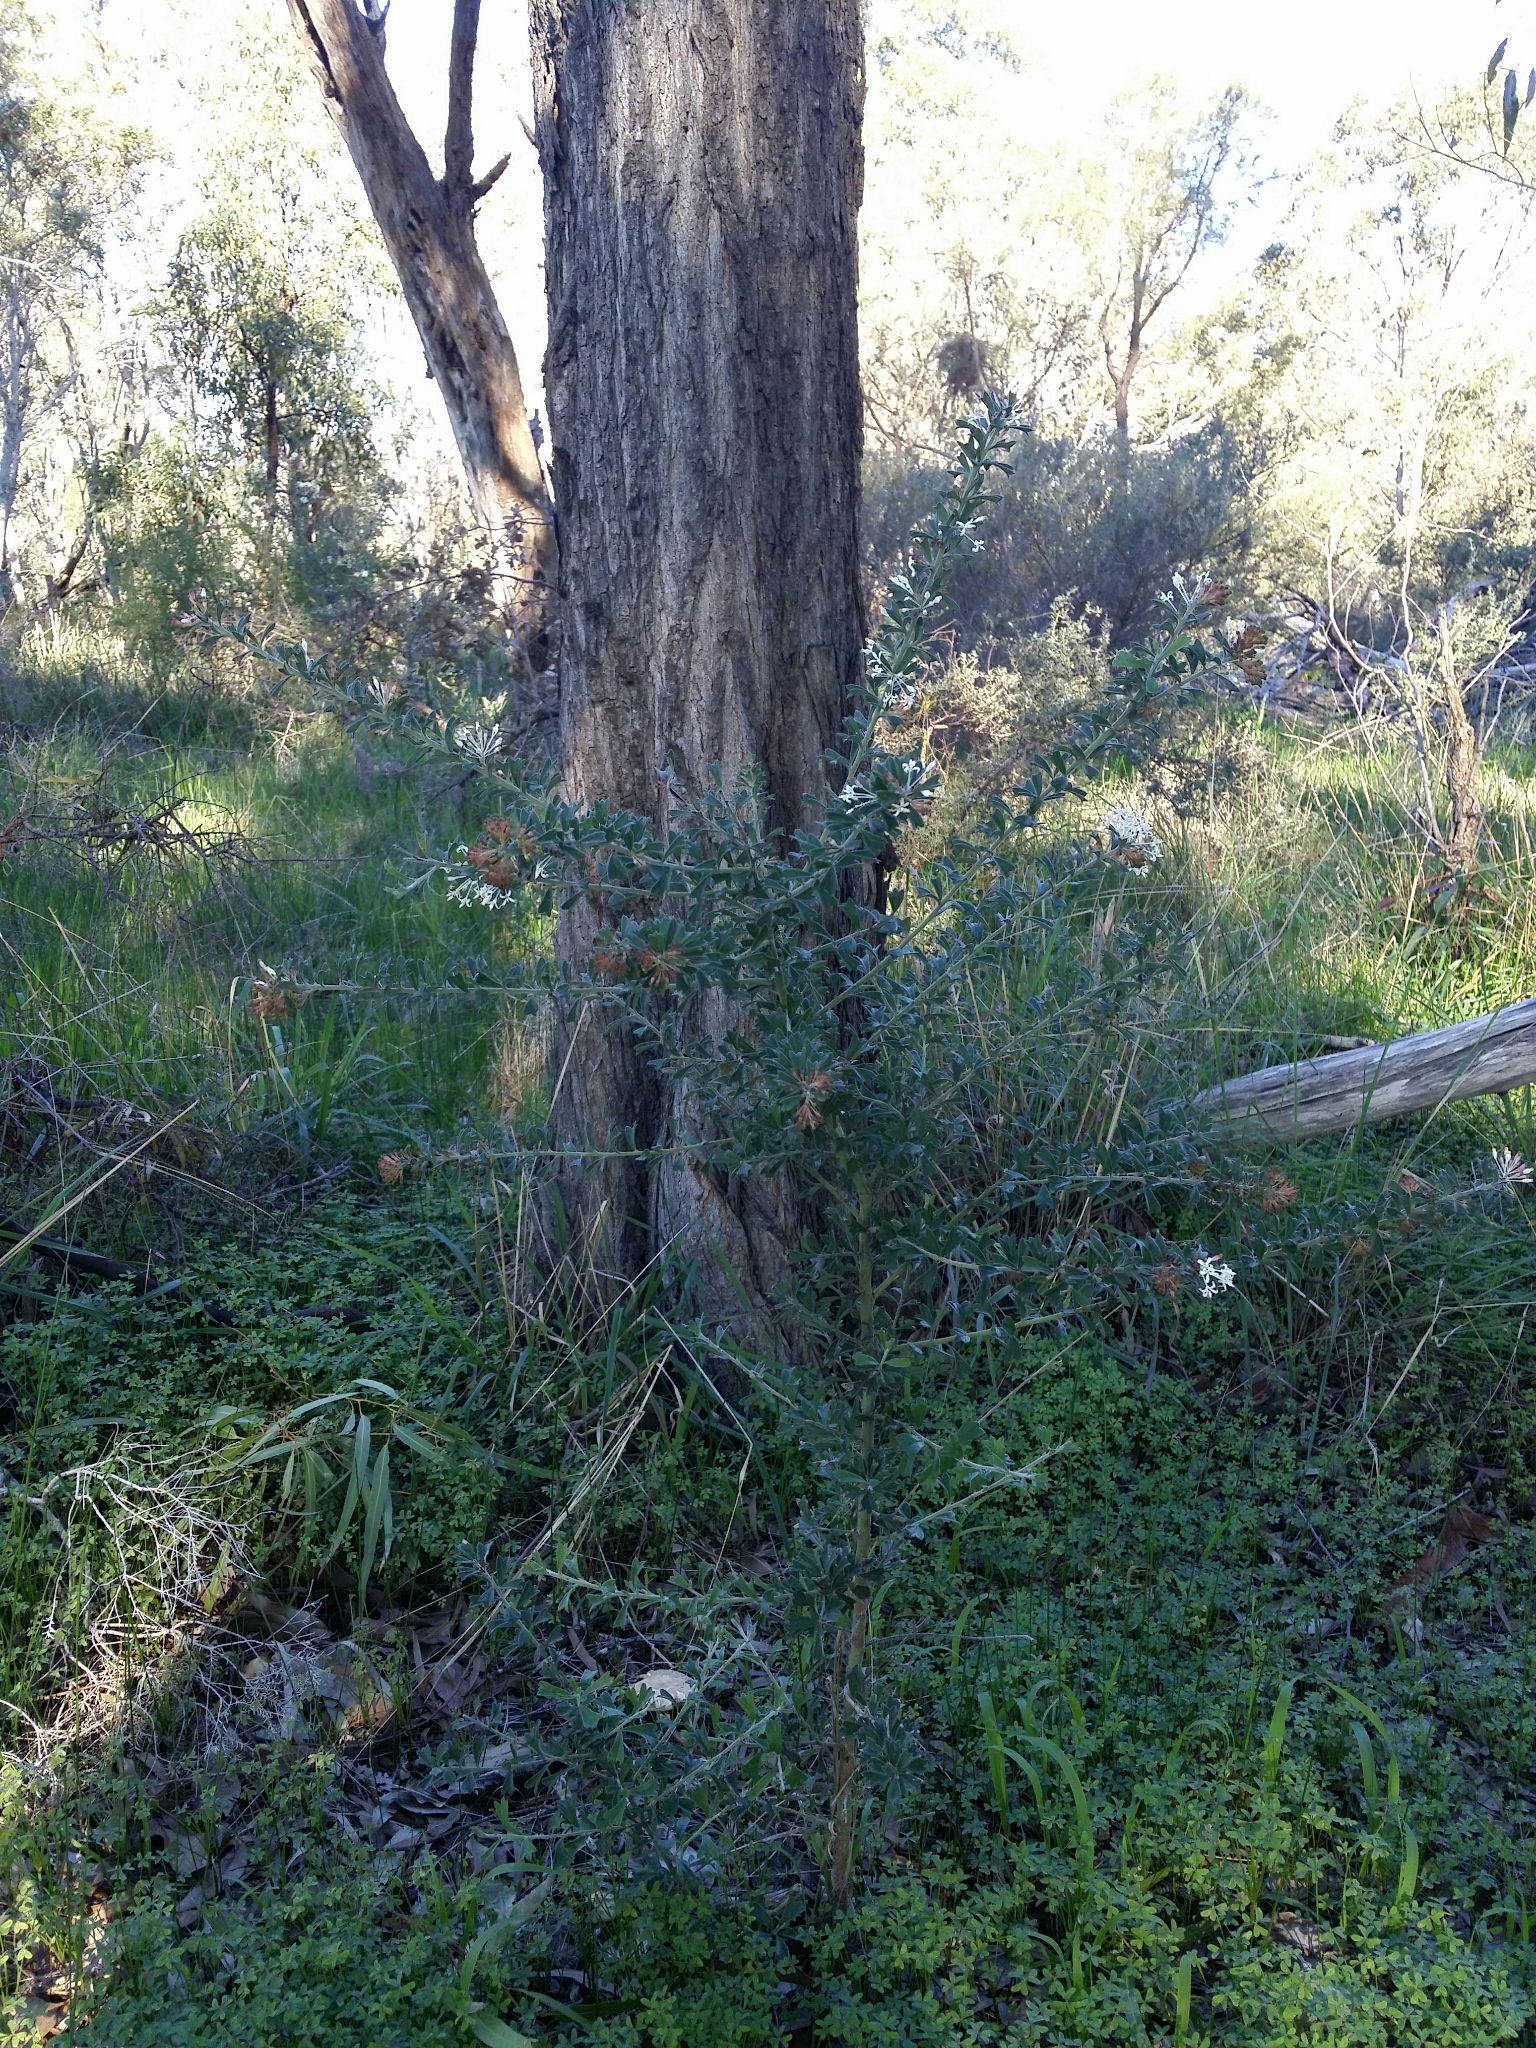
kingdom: Plantae
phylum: Tracheophyta
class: Magnoliopsida
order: Proteales
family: Proteaceae
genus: Grevillea
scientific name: Grevillea manglesii
